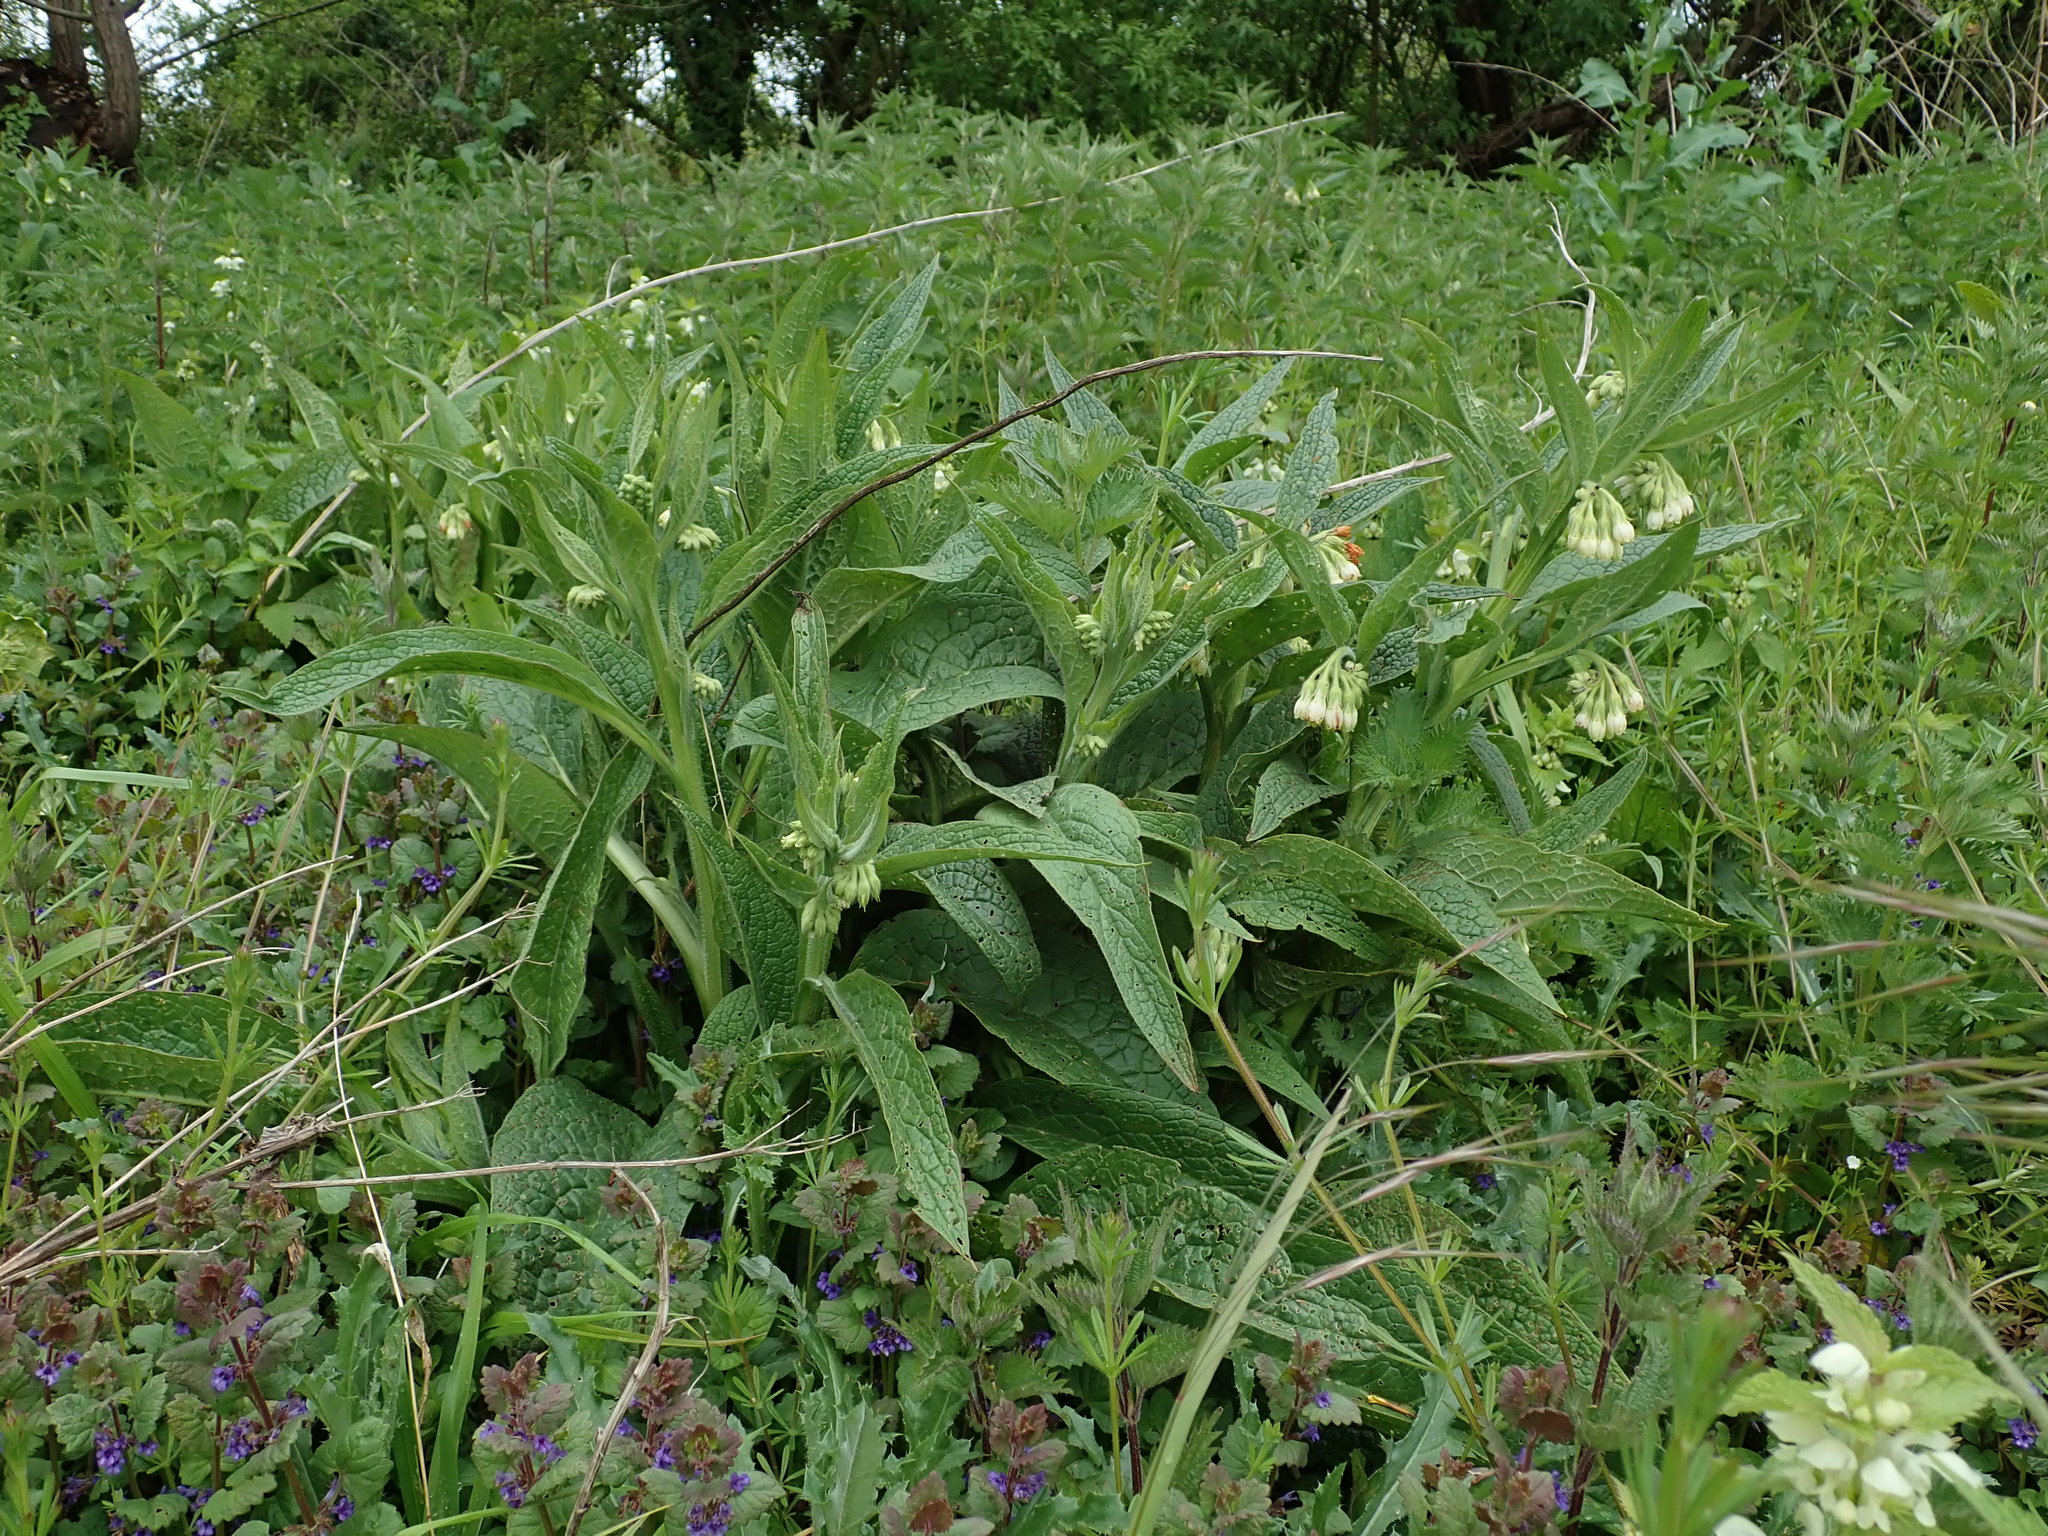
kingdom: Plantae
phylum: Tracheophyta
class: Magnoliopsida
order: Boraginales
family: Boraginaceae
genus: Symphytum
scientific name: Symphytum officinale
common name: Common comfrey
